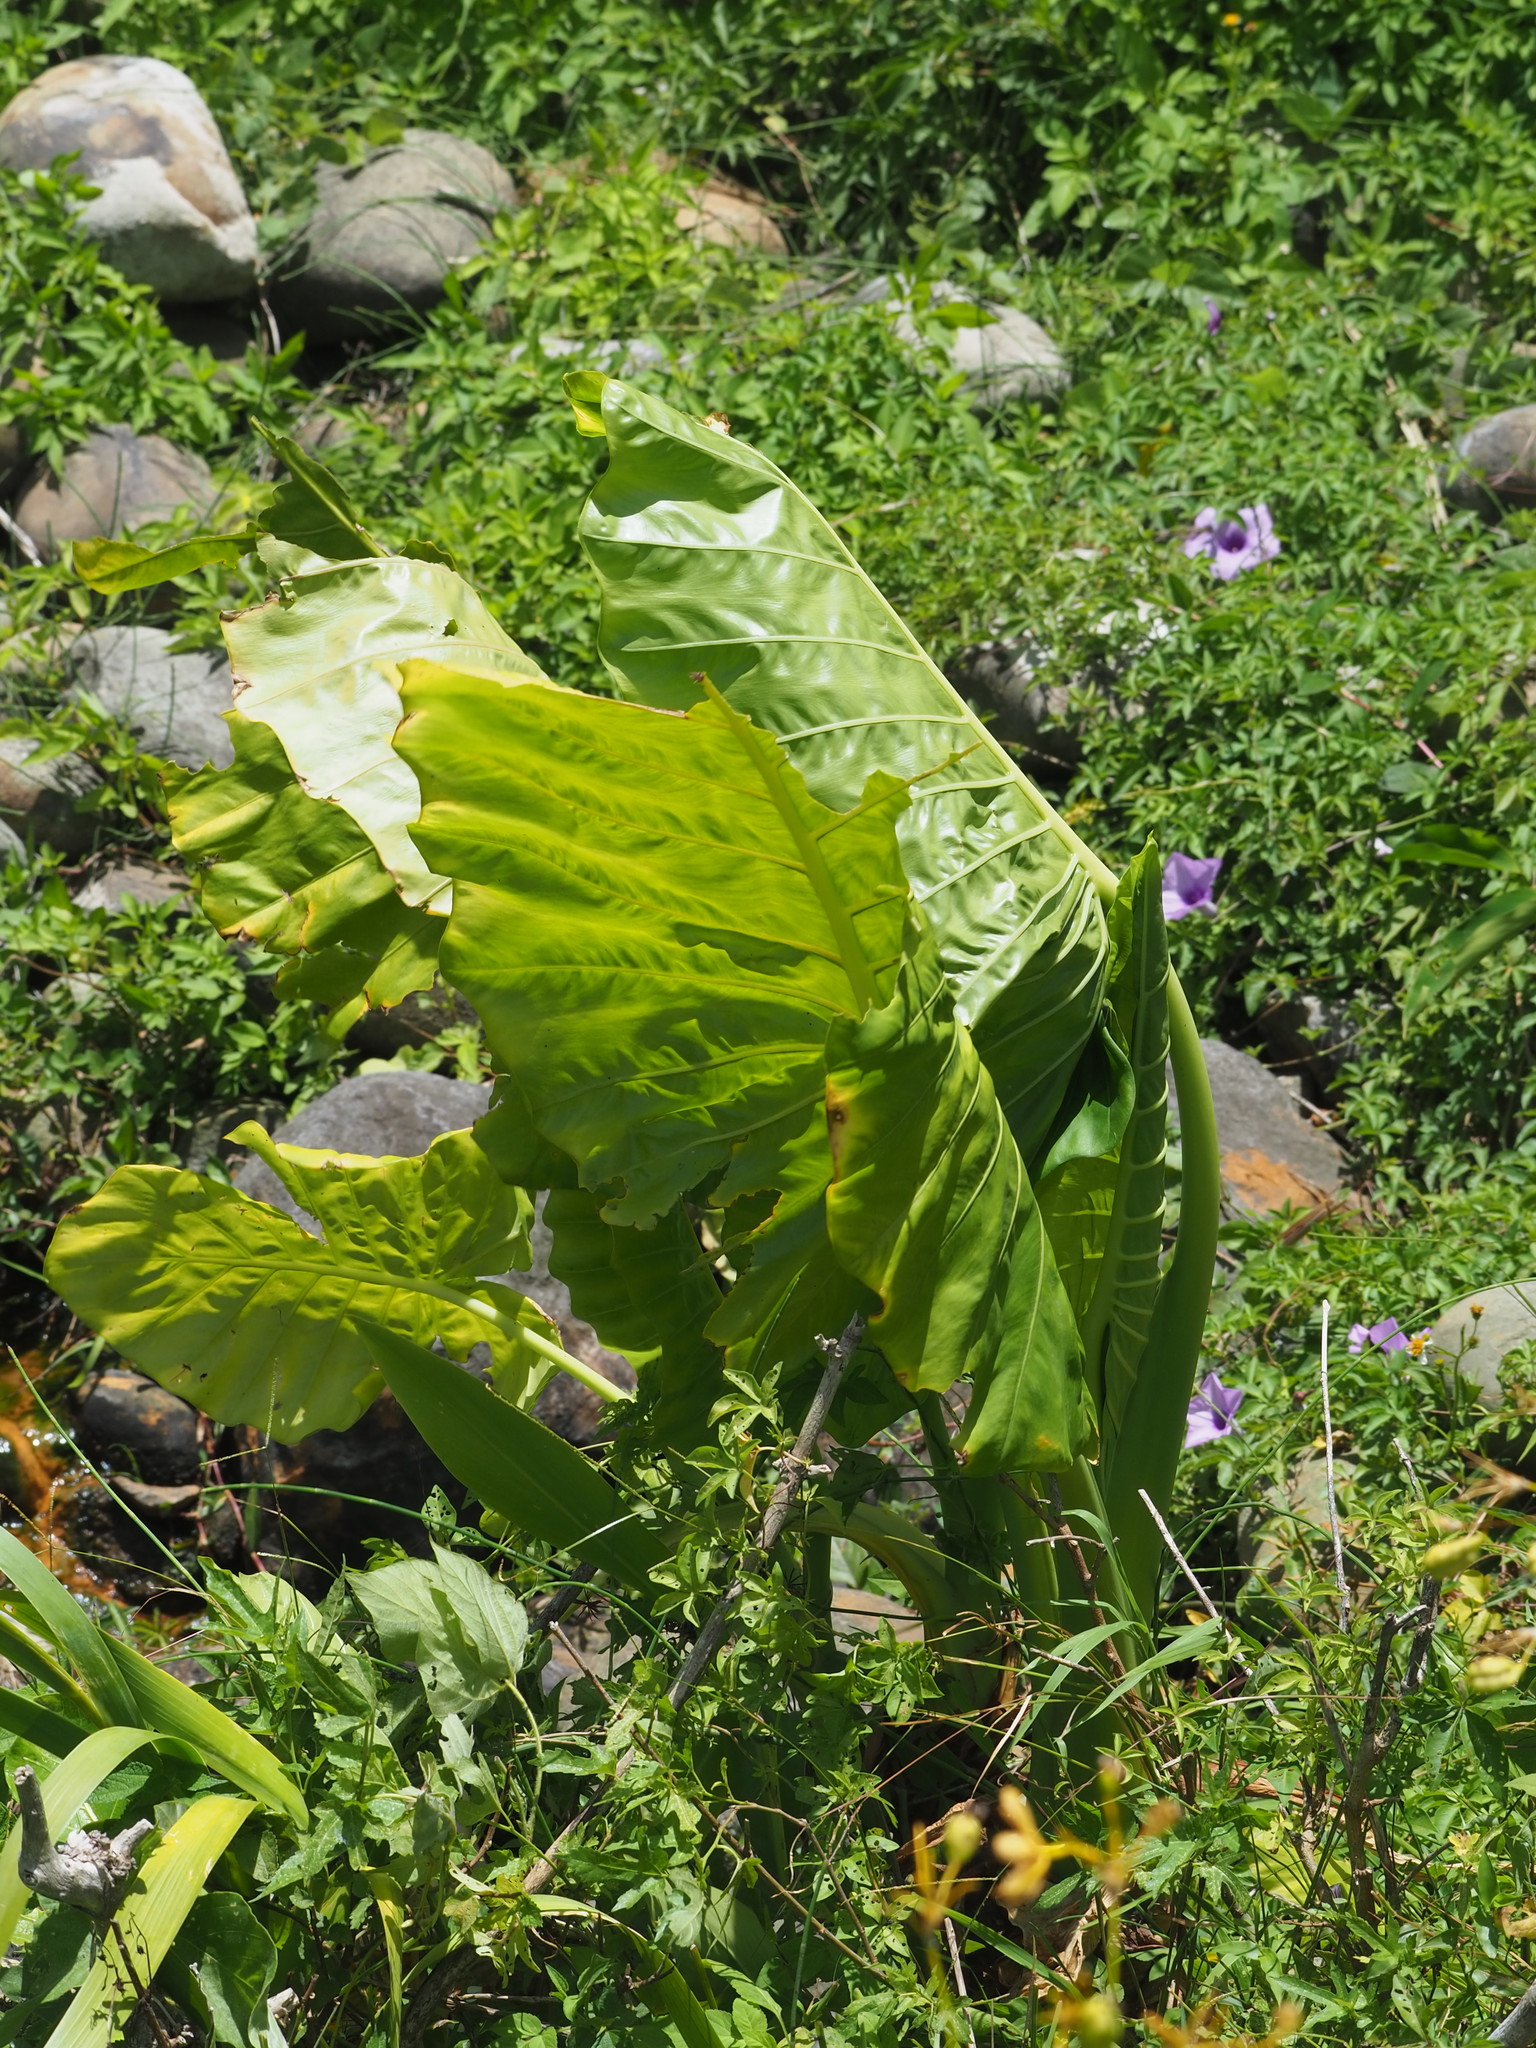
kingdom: Plantae
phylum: Tracheophyta
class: Liliopsida
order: Alismatales
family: Araceae
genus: Alocasia
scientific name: Alocasia odora
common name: Asian taro
